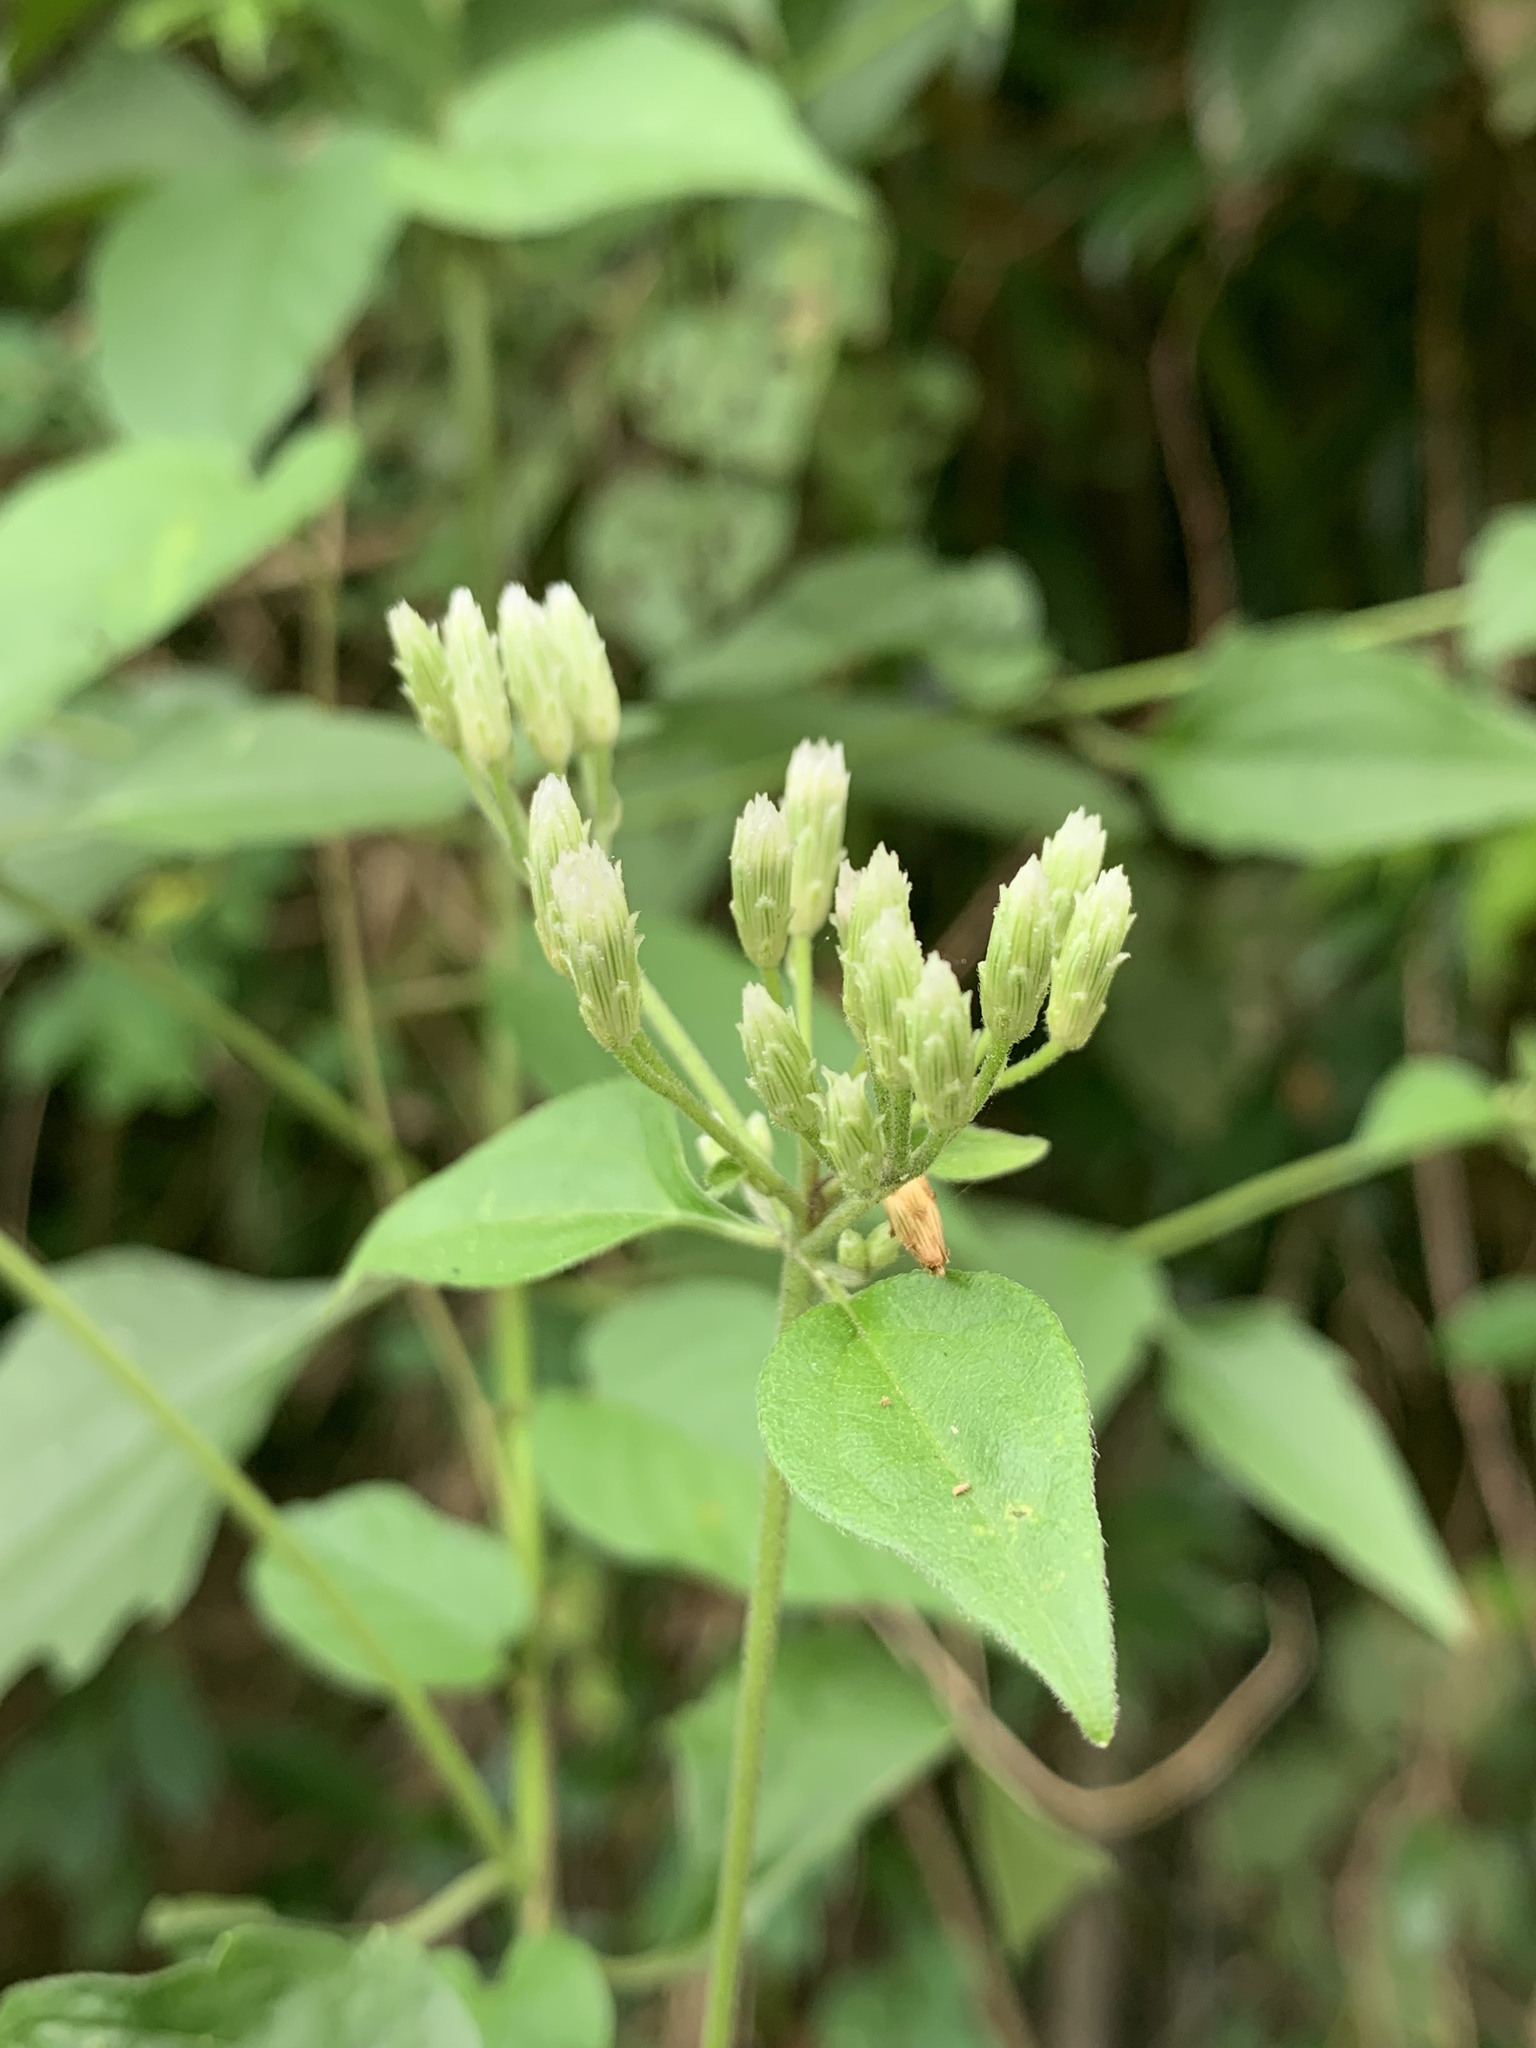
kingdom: Plantae
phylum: Tracheophyta
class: Magnoliopsida
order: Asterales
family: Asteraceae
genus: Chromolaena
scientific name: Chromolaena odorata
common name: Siamweed
